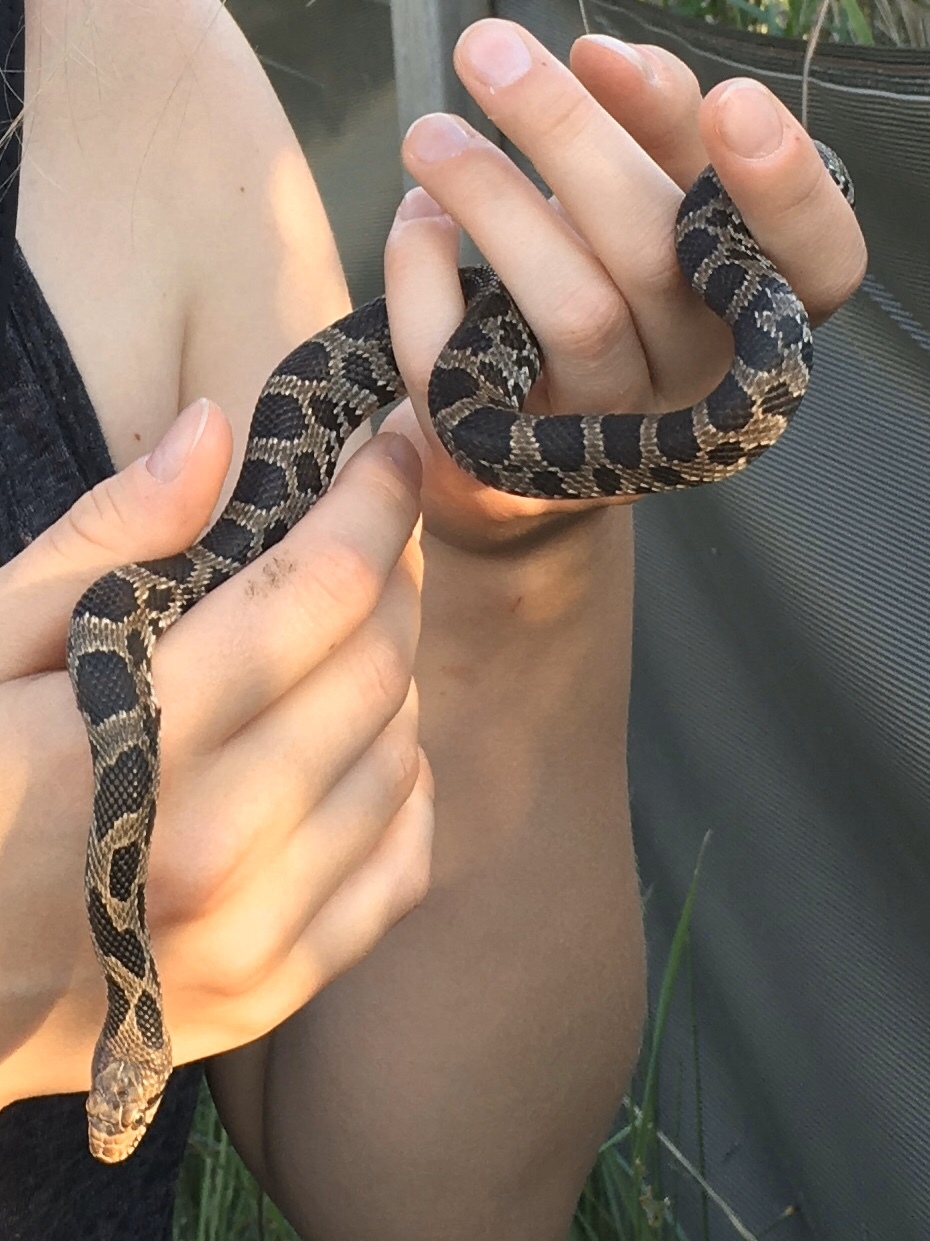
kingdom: Animalia
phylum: Chordata
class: Squamata
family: Colubridae
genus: Pantherophis
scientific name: Pantherophis vulpinus
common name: Eastern fox snake
